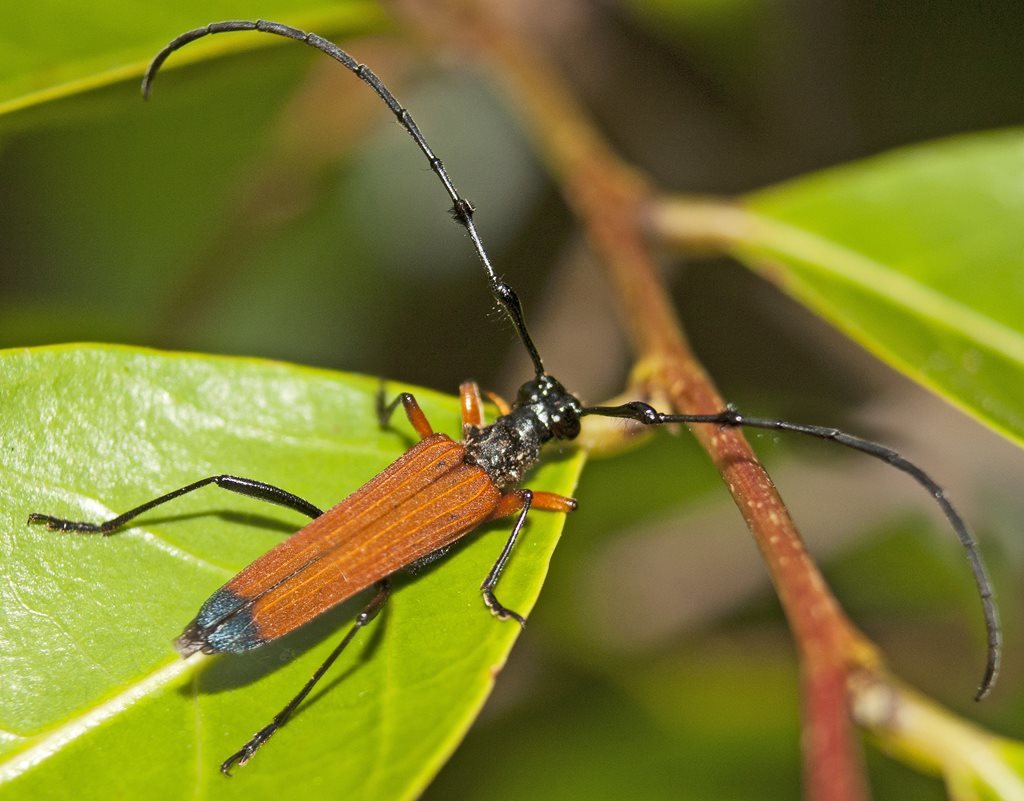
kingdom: Animalia
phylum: Arthropoda
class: Insecta
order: Coleoptera
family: Cerambycidae
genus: Tritocosmia
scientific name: Tritocosmia atricilla
